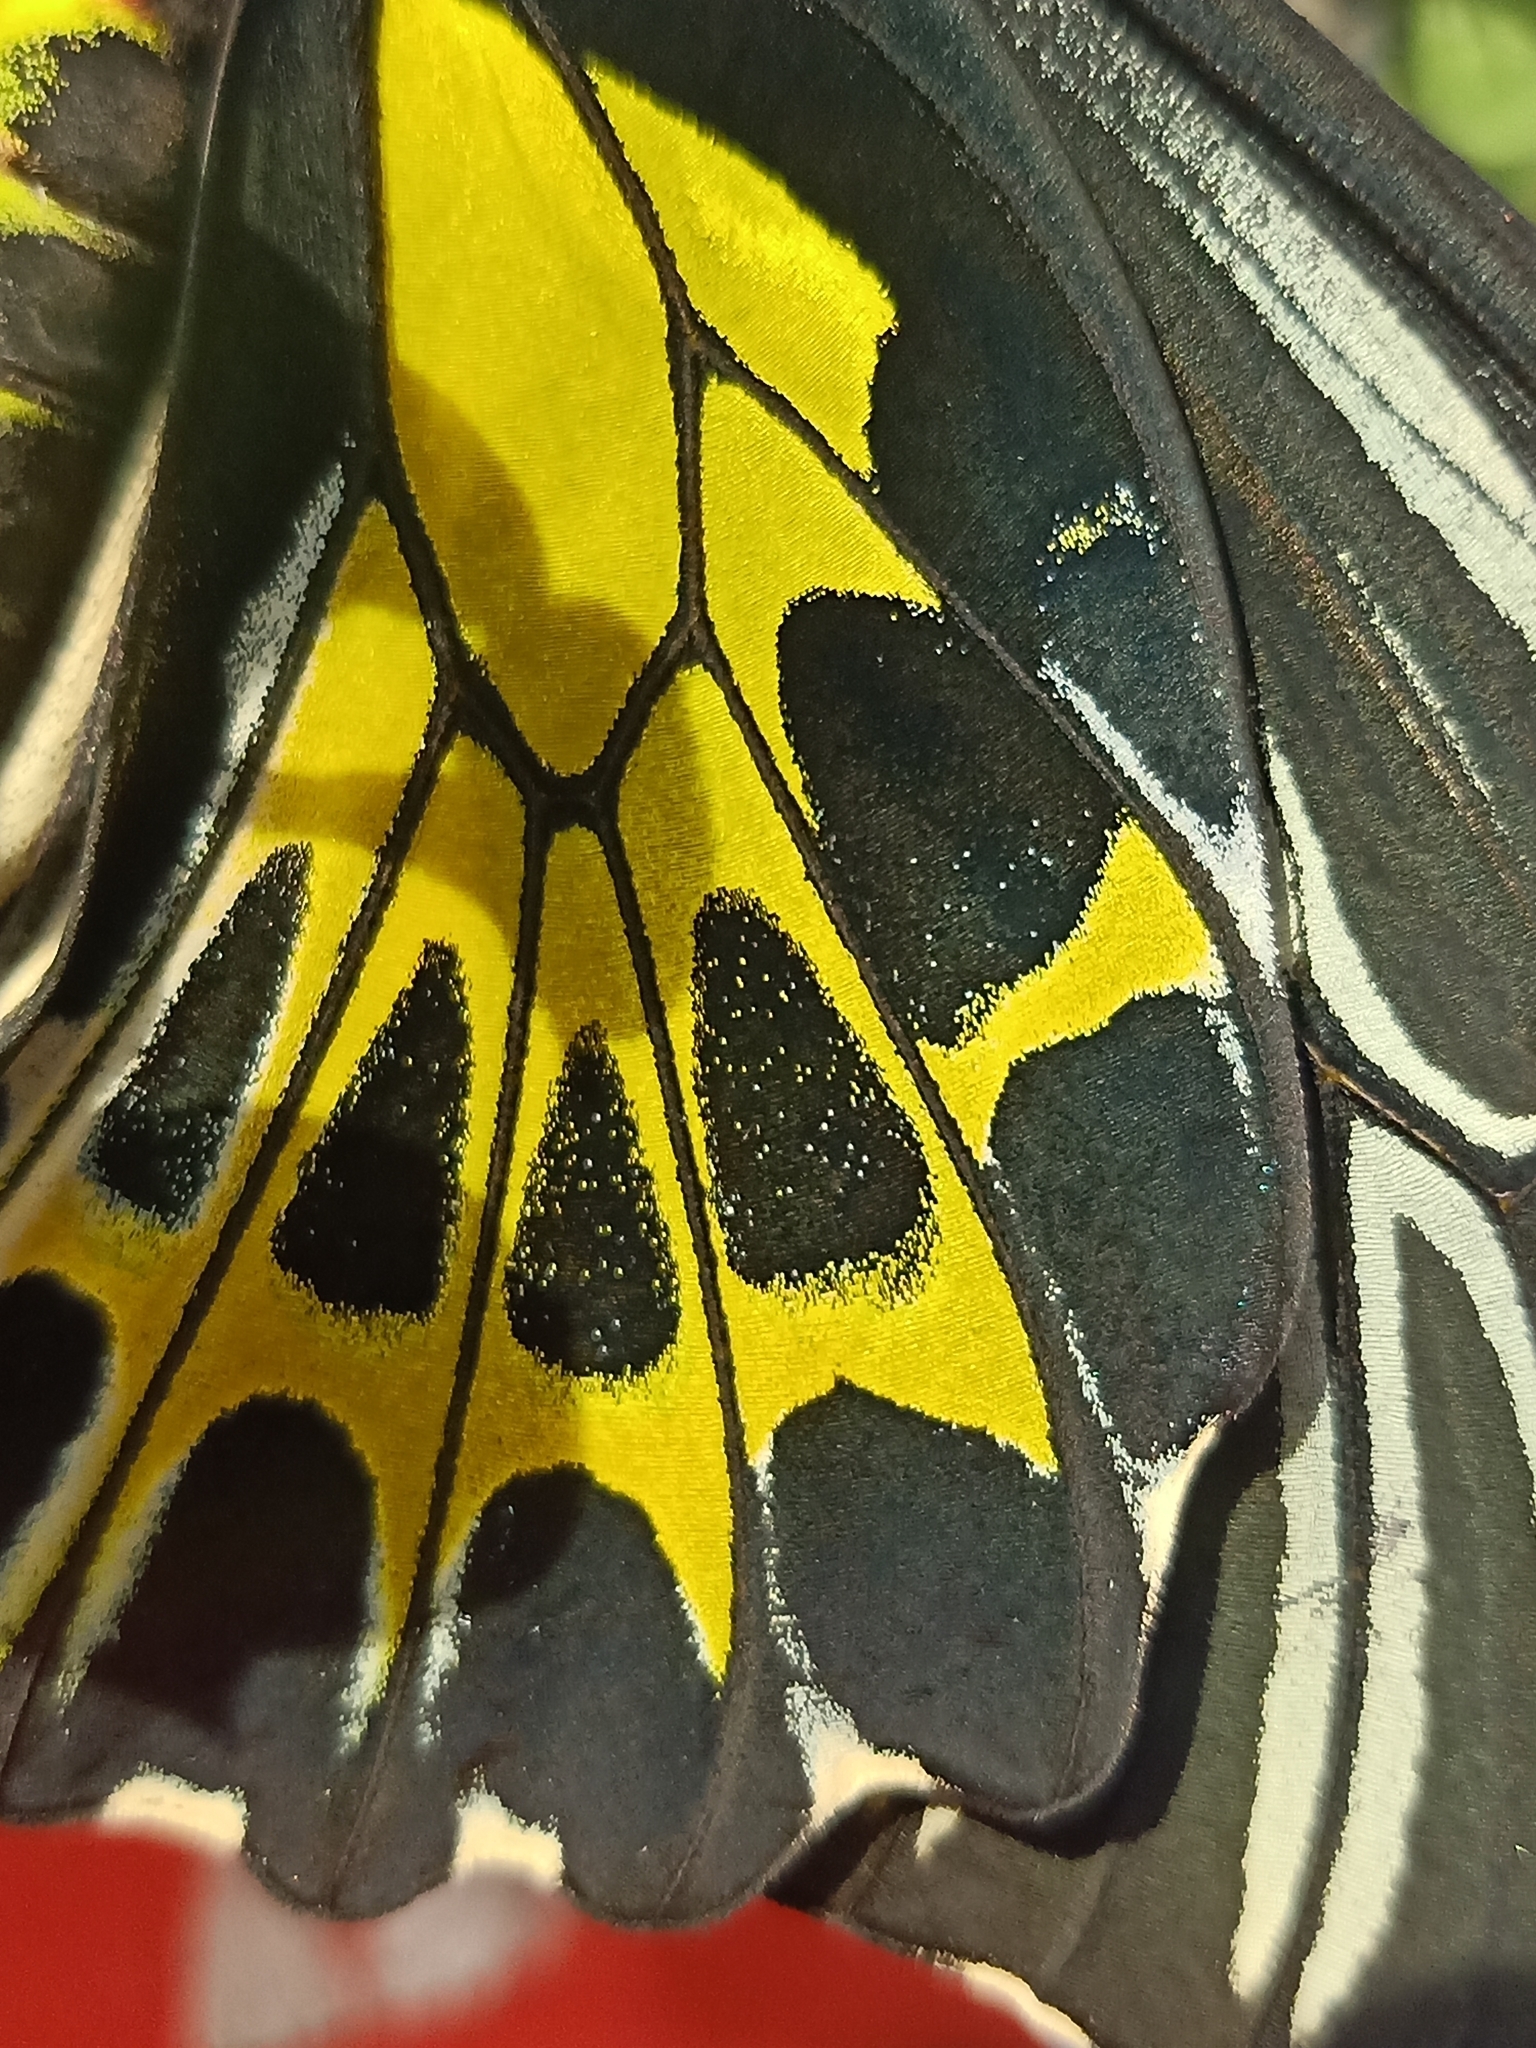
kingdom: Animalia
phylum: Arthropoda
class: Insecta
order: Lepidoptera
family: Papilionidae
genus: Troides
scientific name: Troides minos
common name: Malabar birdwing
